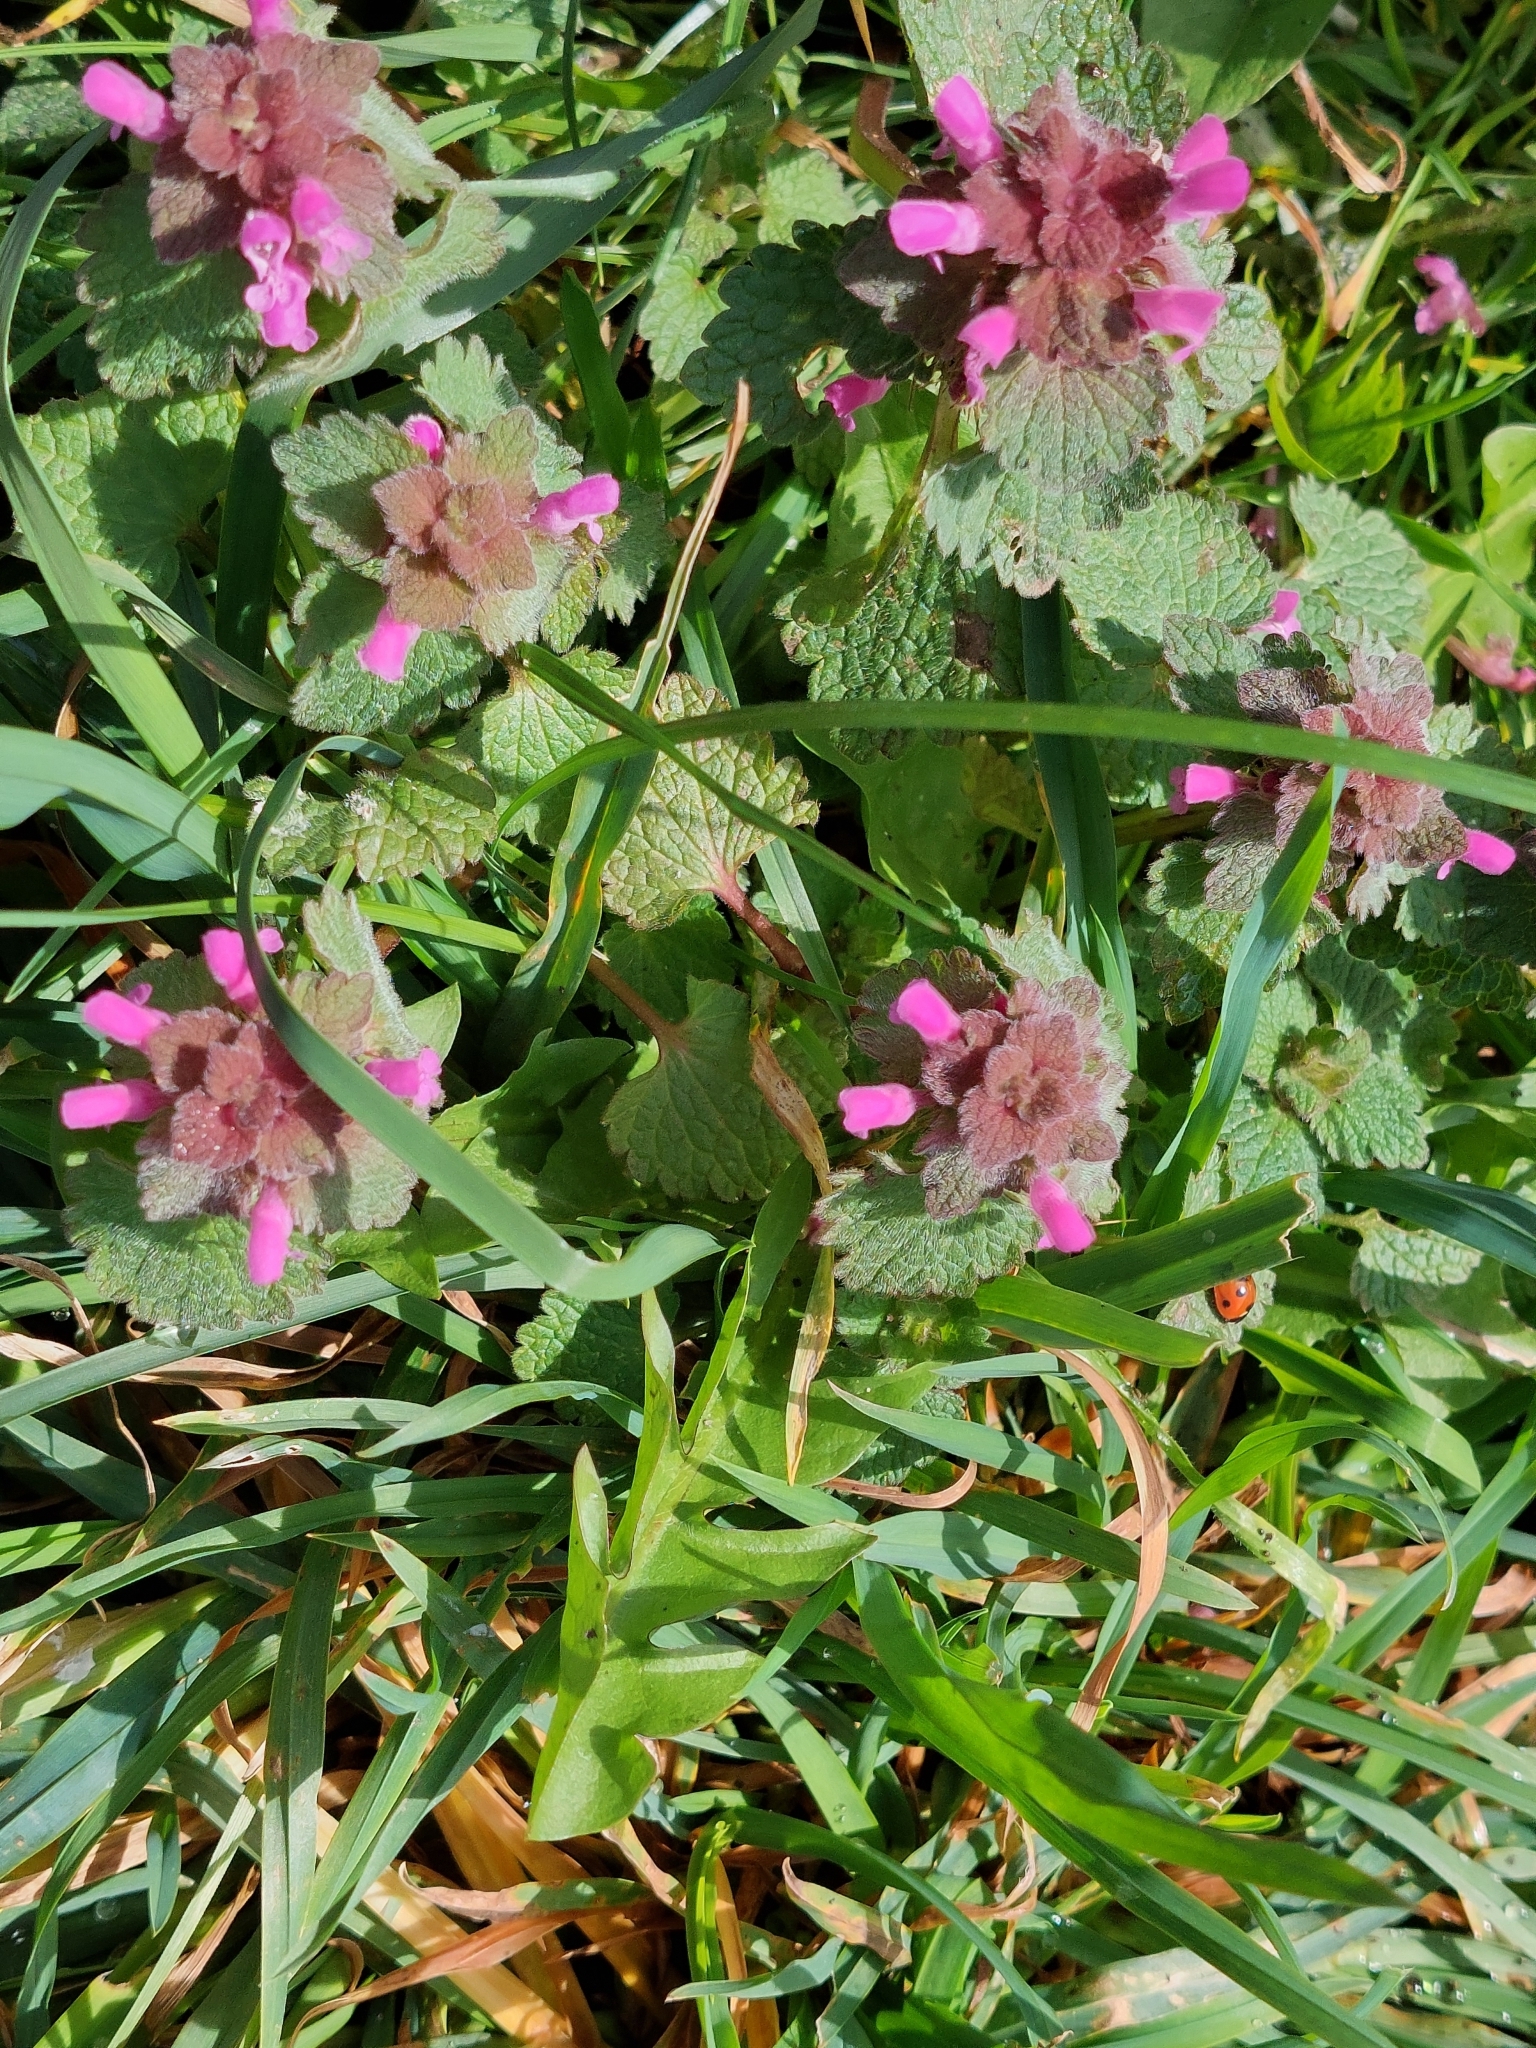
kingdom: Plantae
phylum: Tracheophyta
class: Magnoliopsida
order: Lamiales
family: Lamiaceae
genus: Lamium
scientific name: Lamium purpureum
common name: Red dead-nettle
